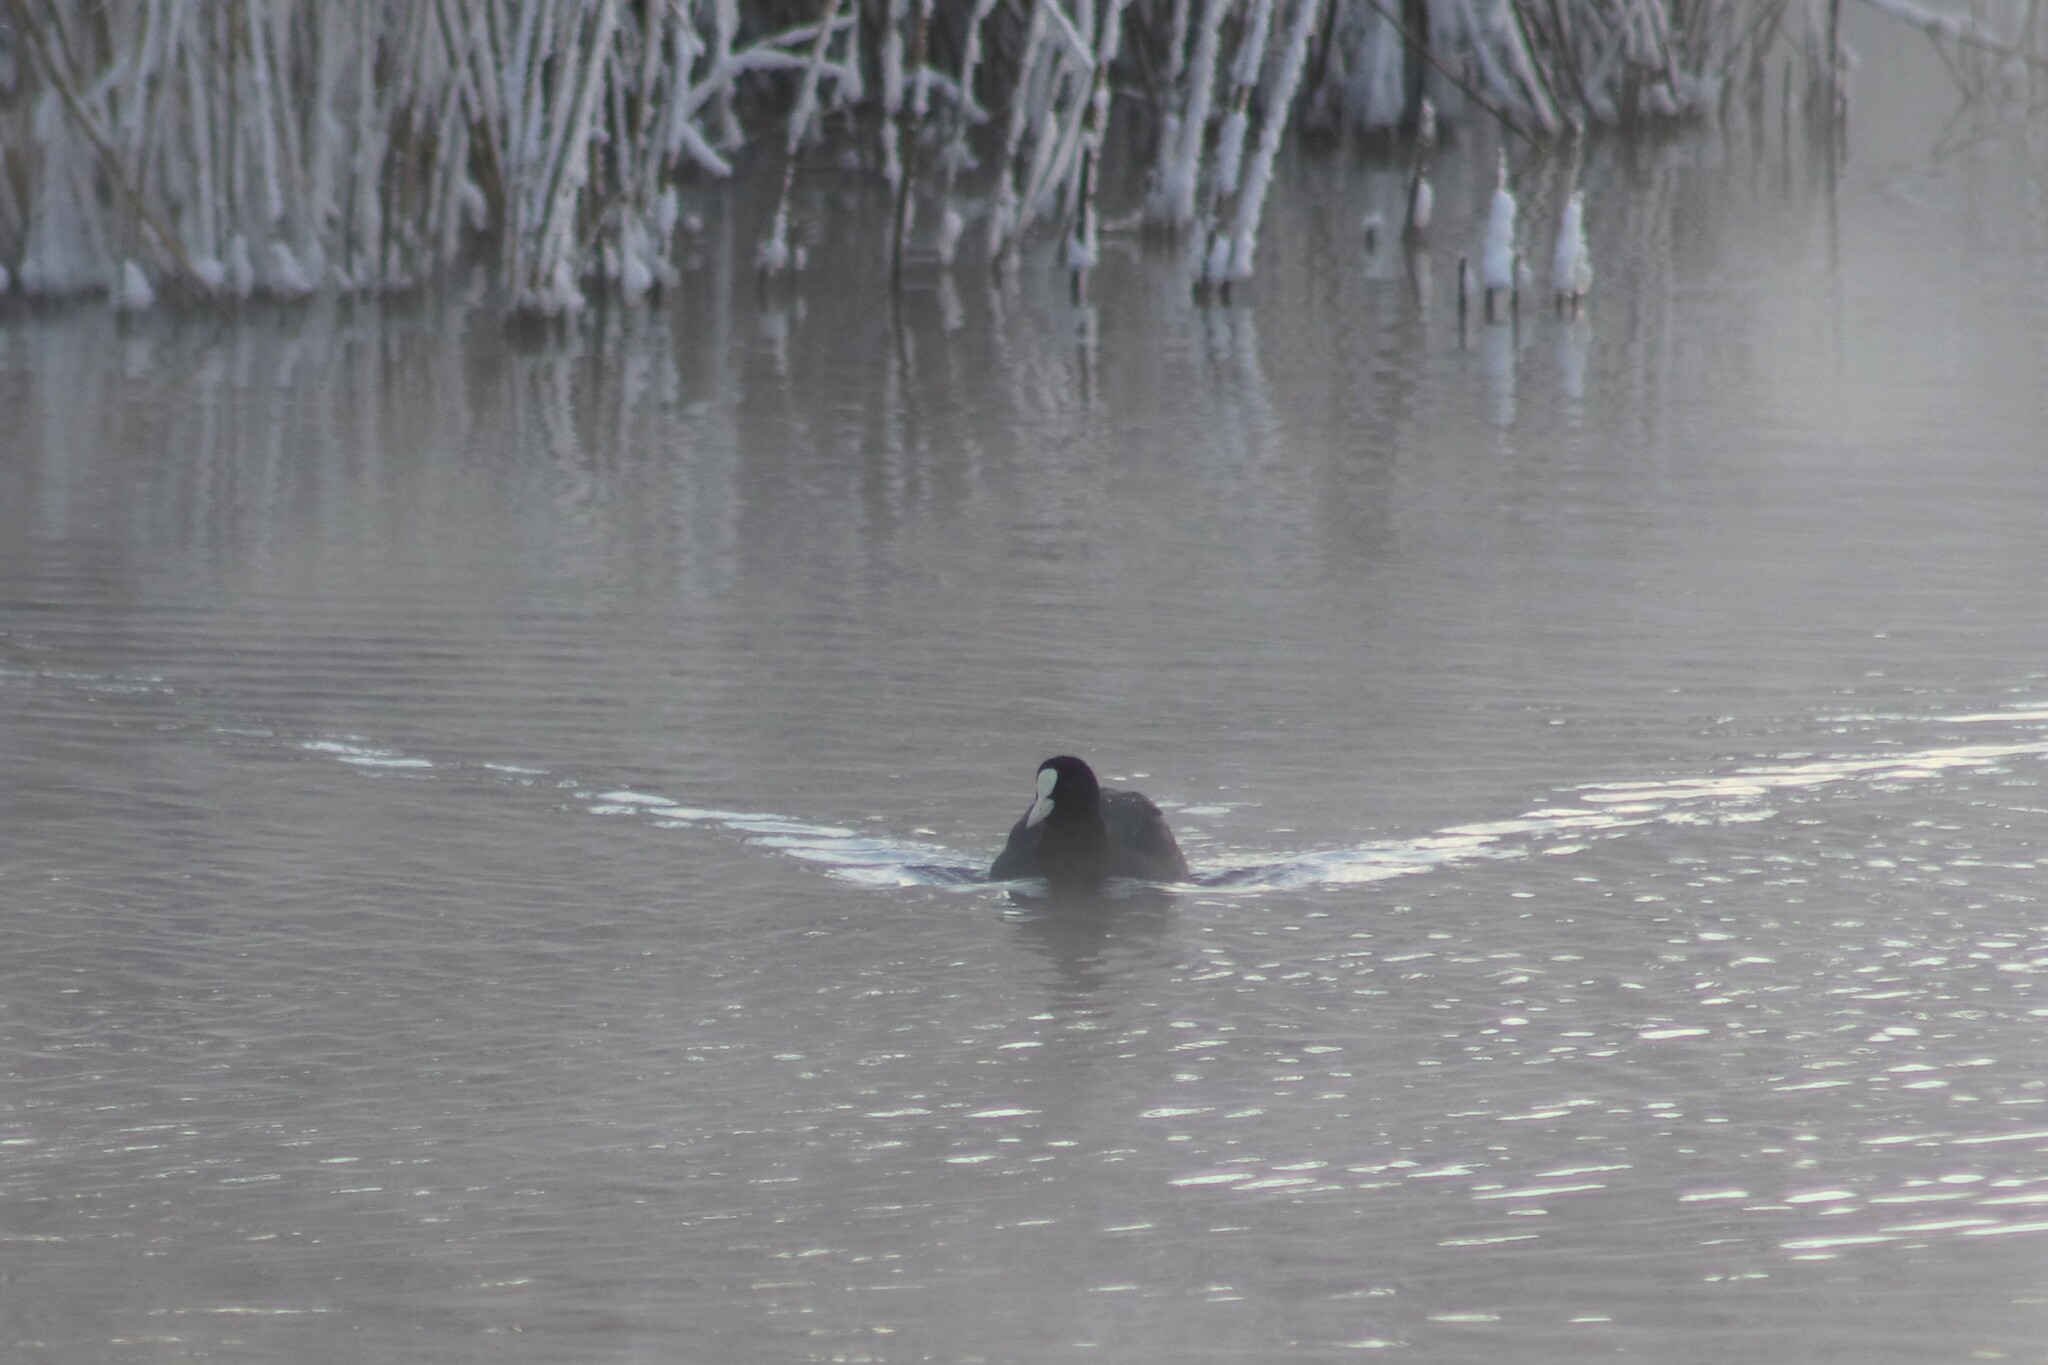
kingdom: Animalia
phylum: Chordata
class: Aves
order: Gruiformes
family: Rallidae
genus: Fulica
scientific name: Fulica atra
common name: Eurasian coot
